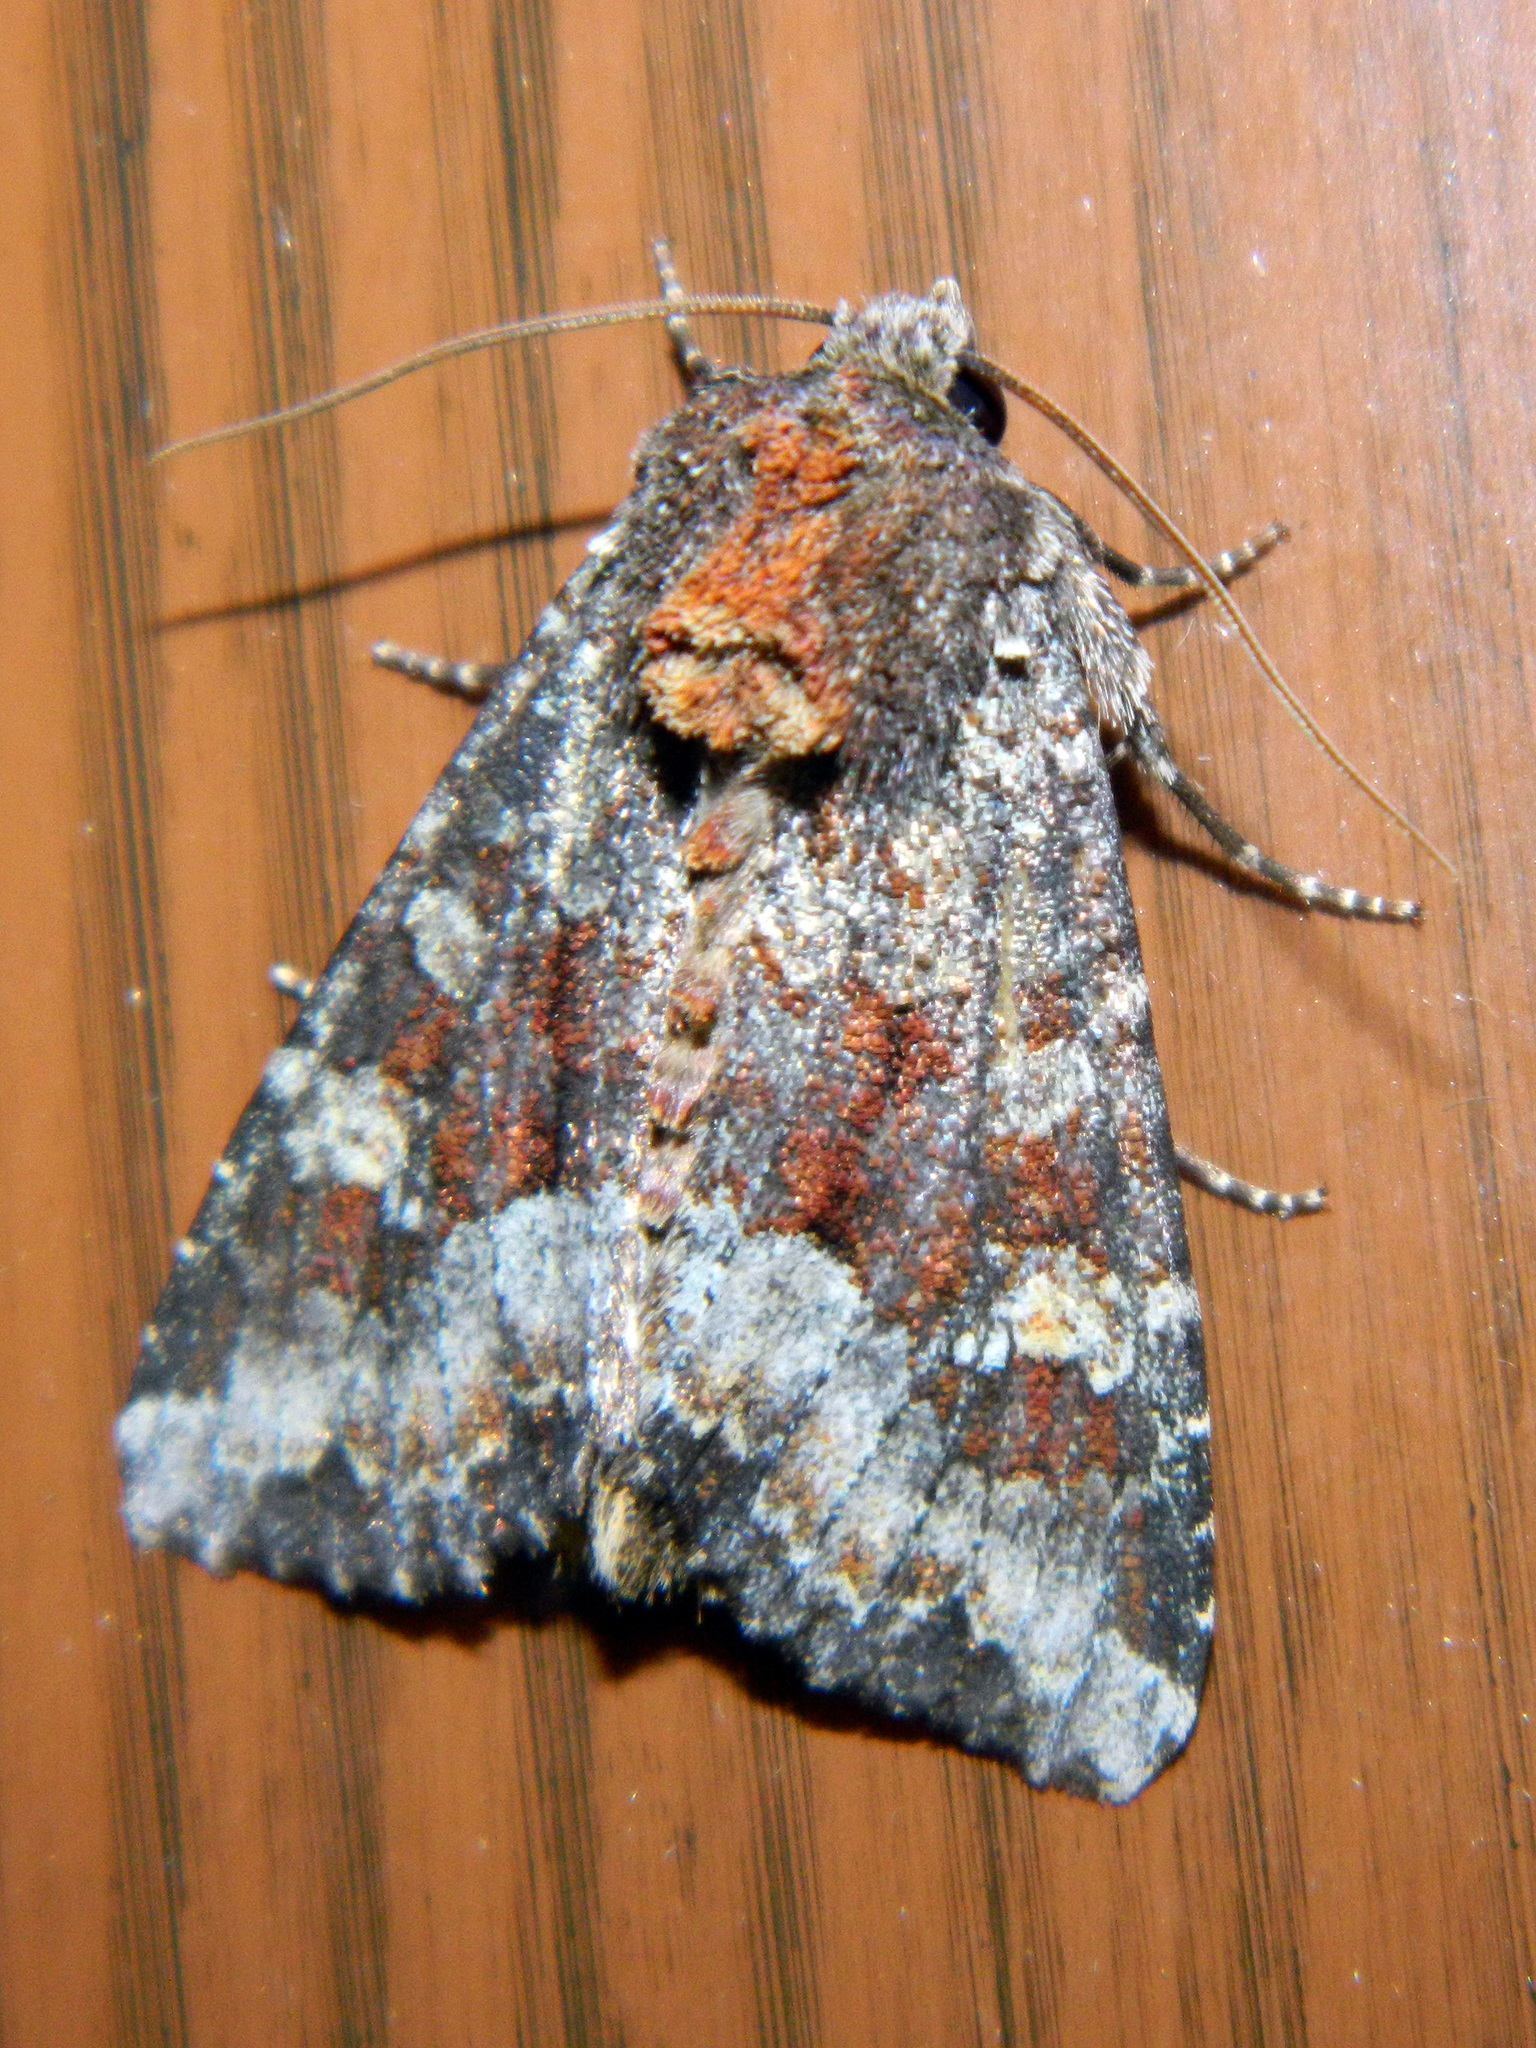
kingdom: Animalia
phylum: Arthropoda
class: Insecta
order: Lepidoptera
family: Noctuidae
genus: Apamea
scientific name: Apamea amputatrix
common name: Yellow-headed cutworm moth
